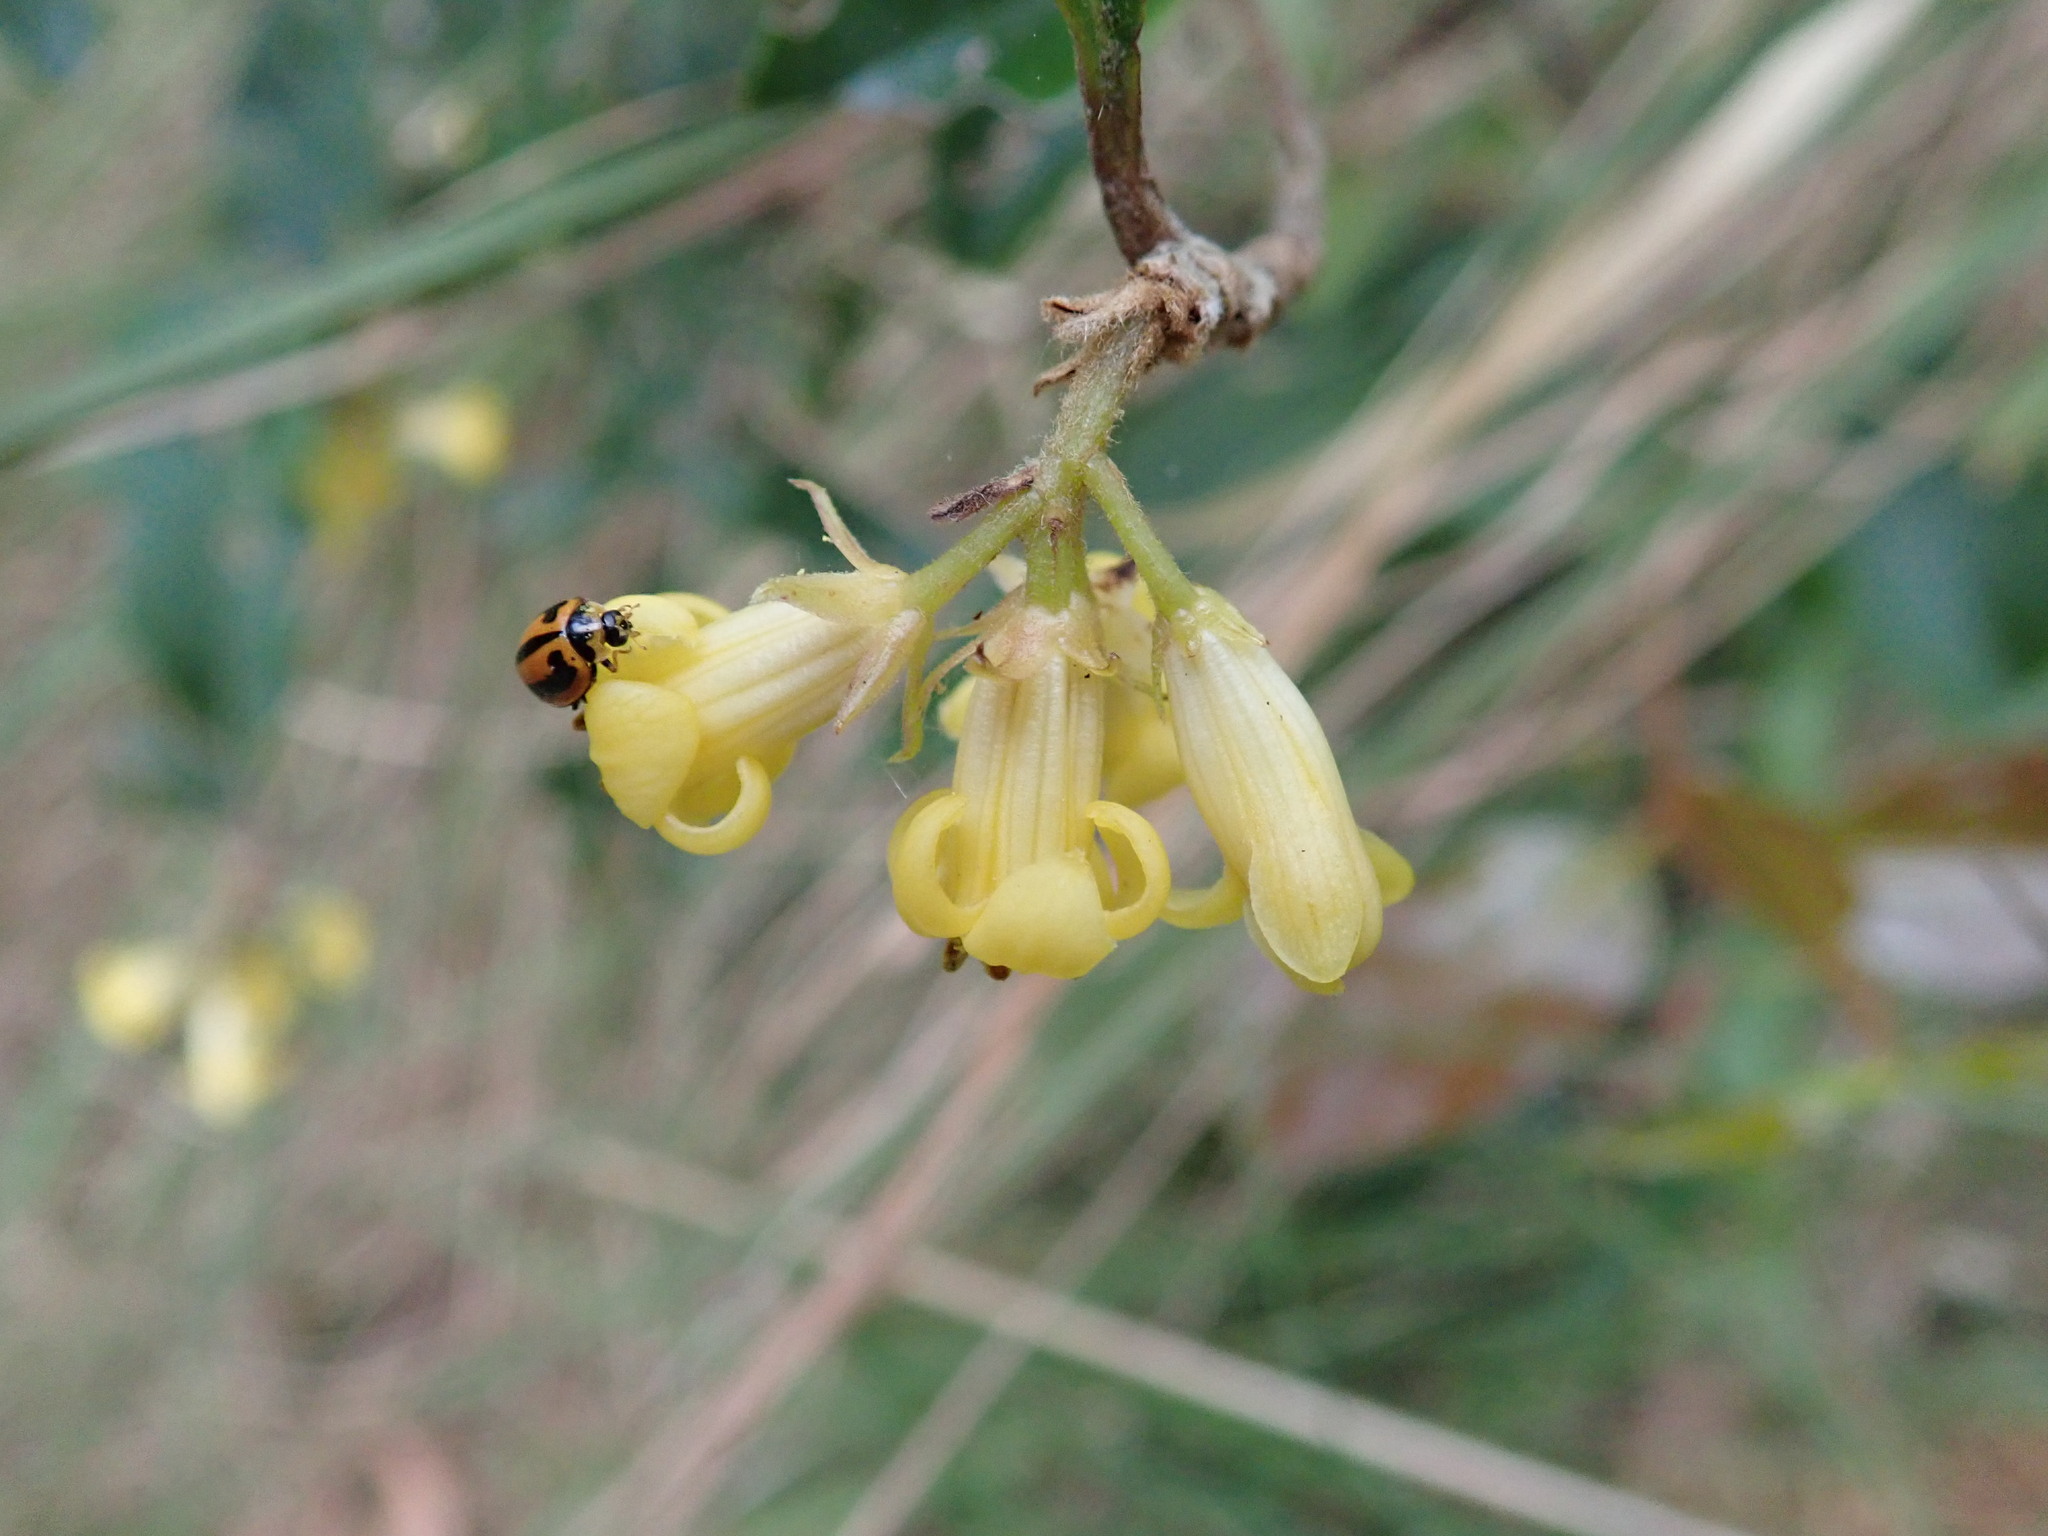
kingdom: Animalia
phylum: Arthropoda
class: Insecta
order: Coleoptera
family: Coccinellidae
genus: Micraspis
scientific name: Micraspis frenata
